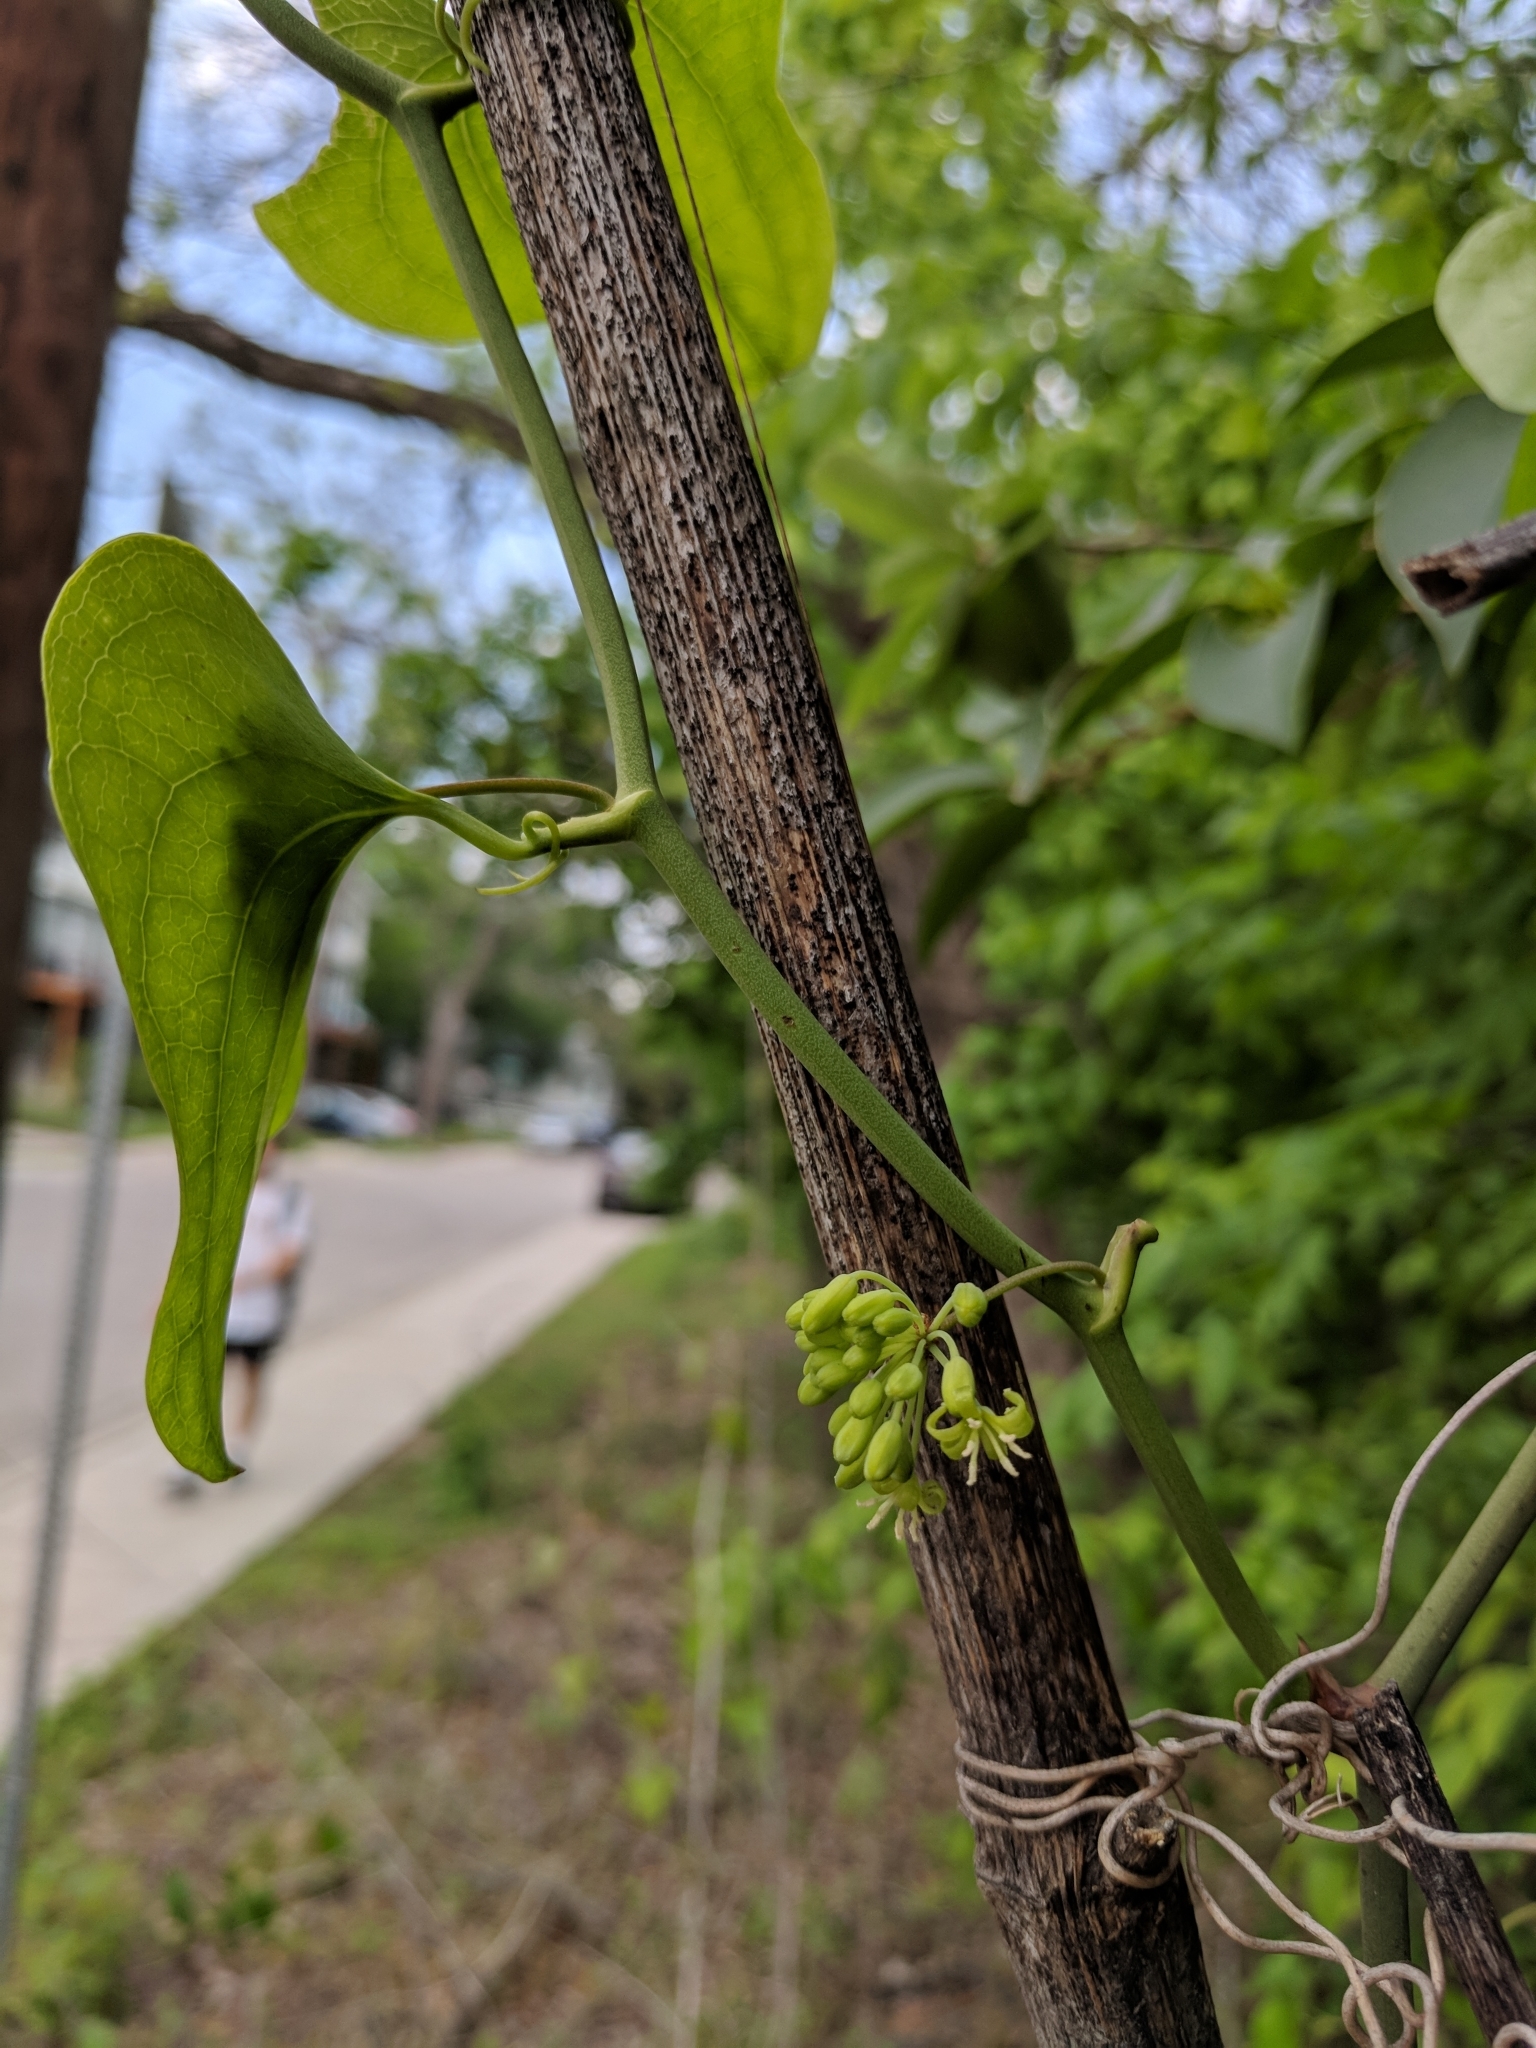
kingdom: Plantae
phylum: Tracheophyta
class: Liliopsida
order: Liliales
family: Smilacaceae
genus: Smilax
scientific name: Smilax bona-nox
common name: Catbrier
